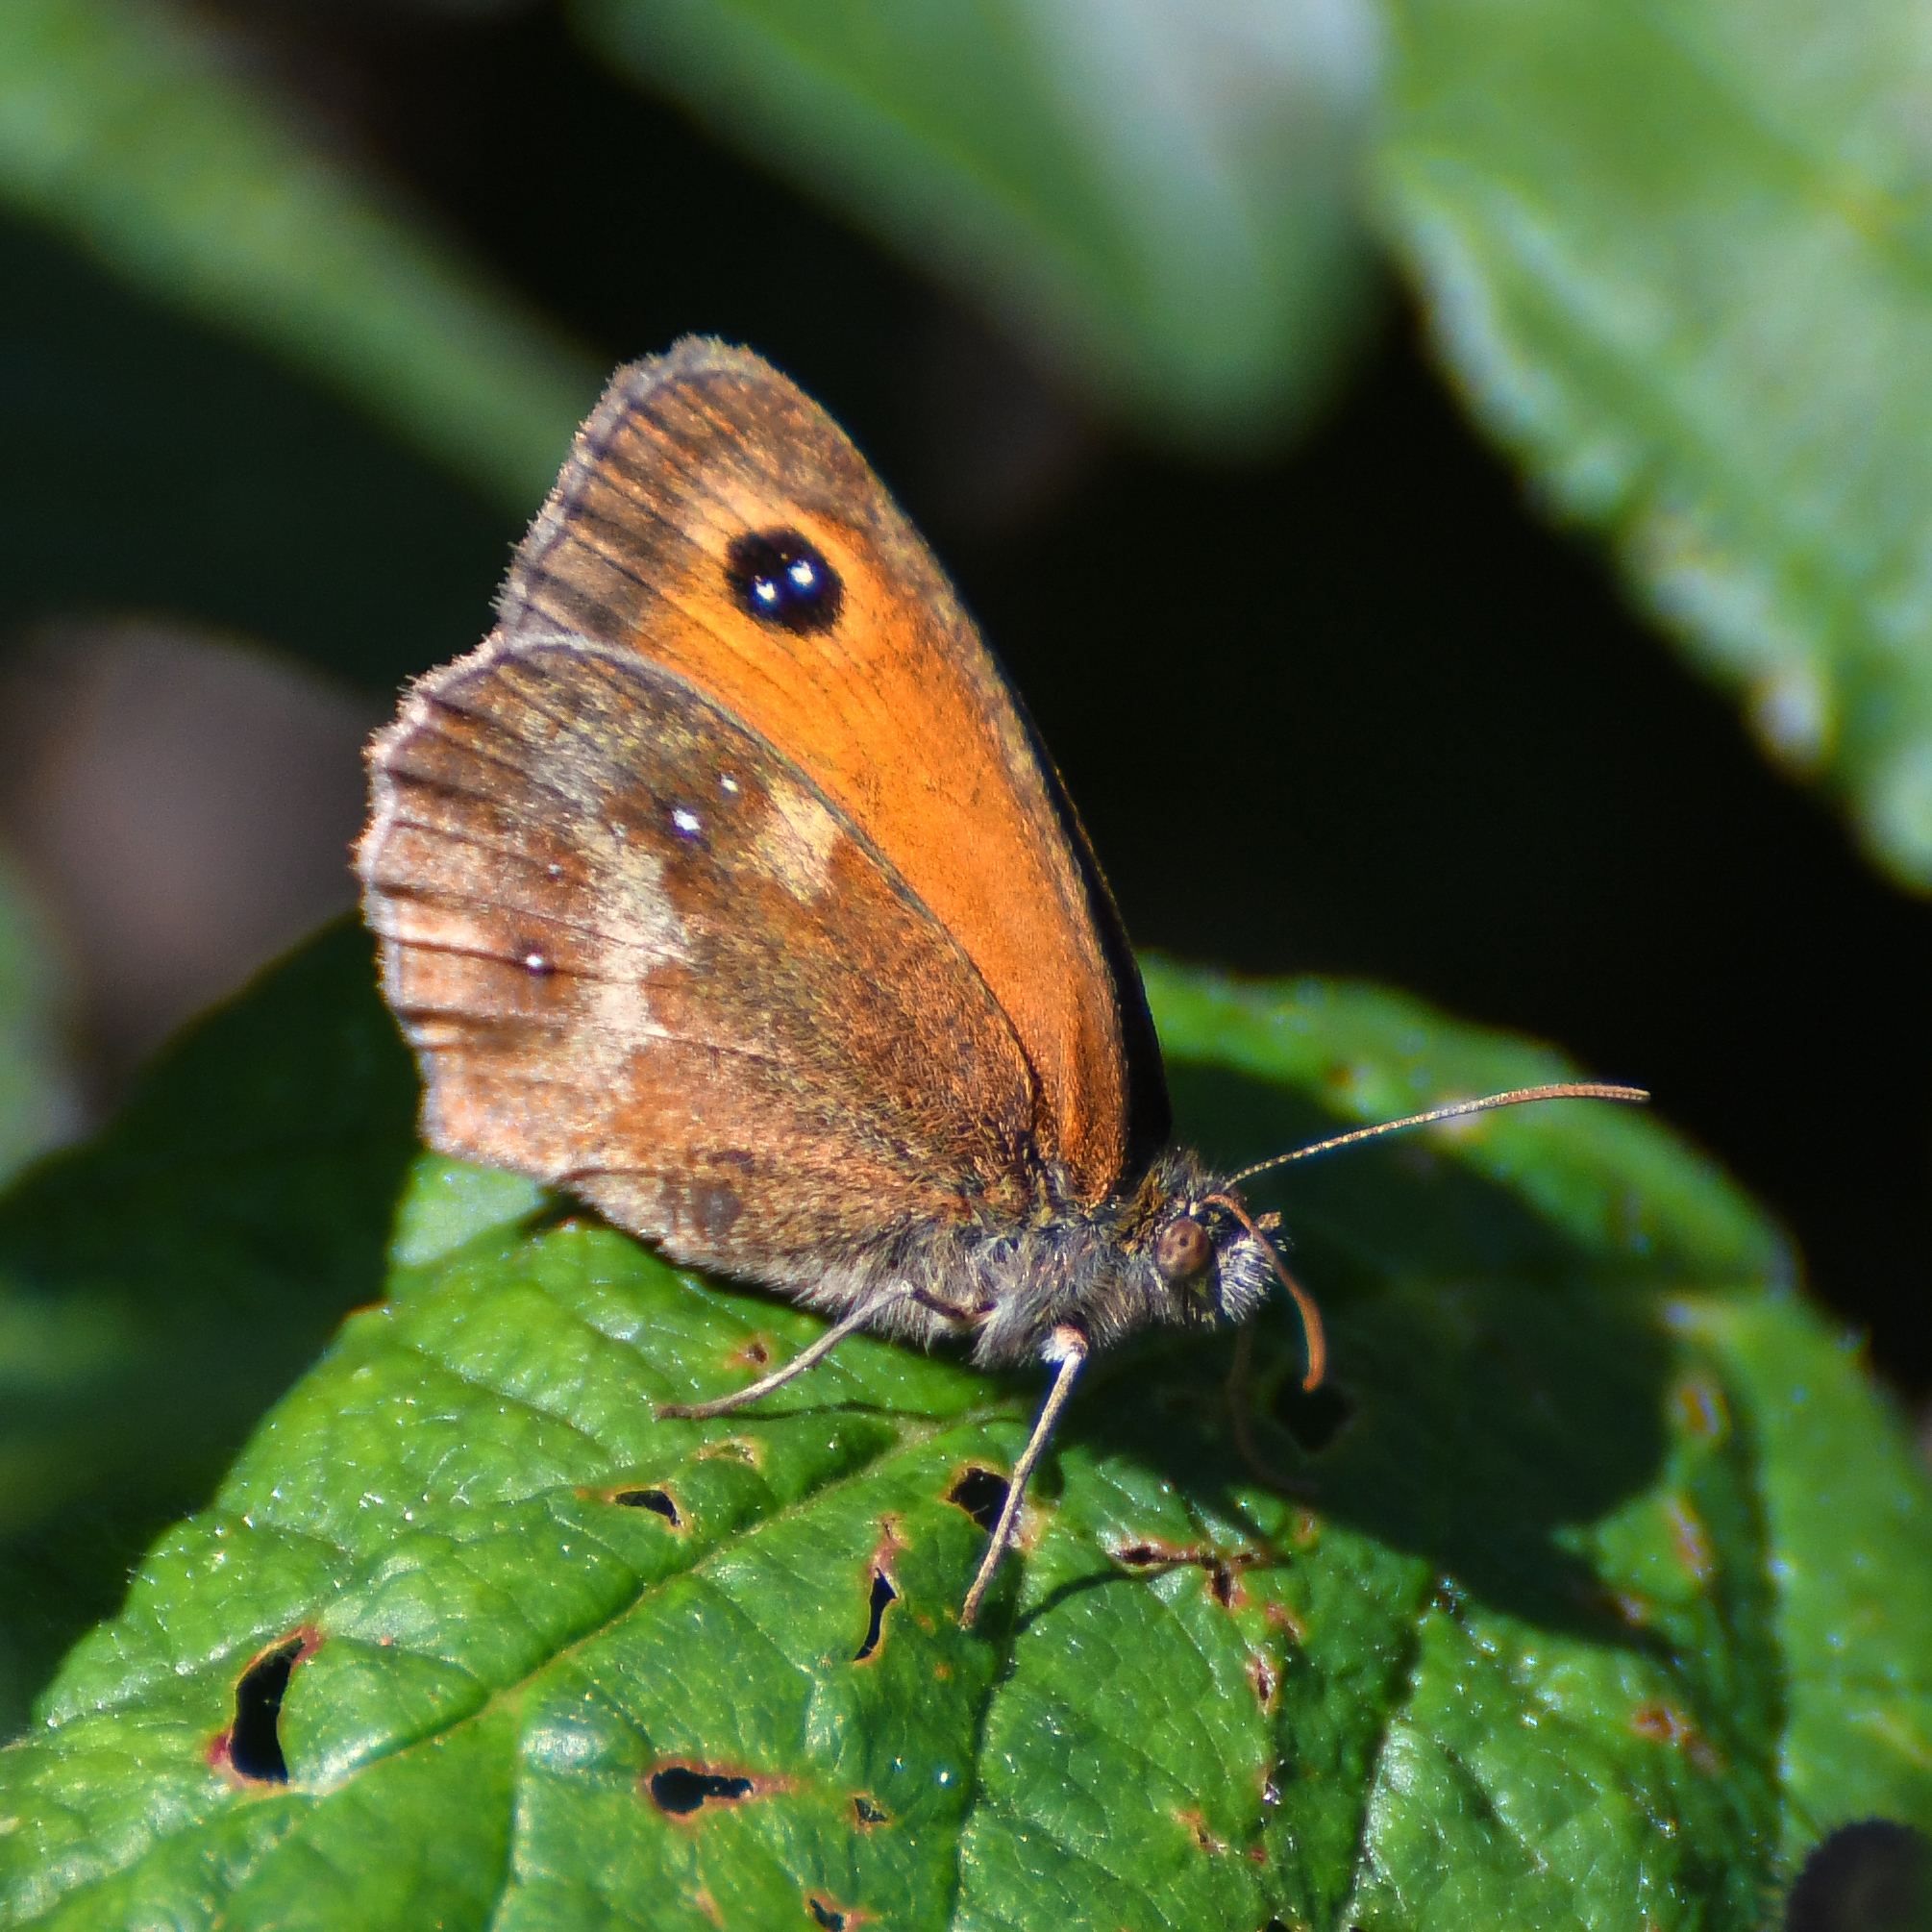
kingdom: Animalia
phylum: Arthropoda
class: Insecta
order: Lepidoptera
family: Nymphalidae
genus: Pyronia
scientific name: Pyronia tithonus
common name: Gatekeeper
